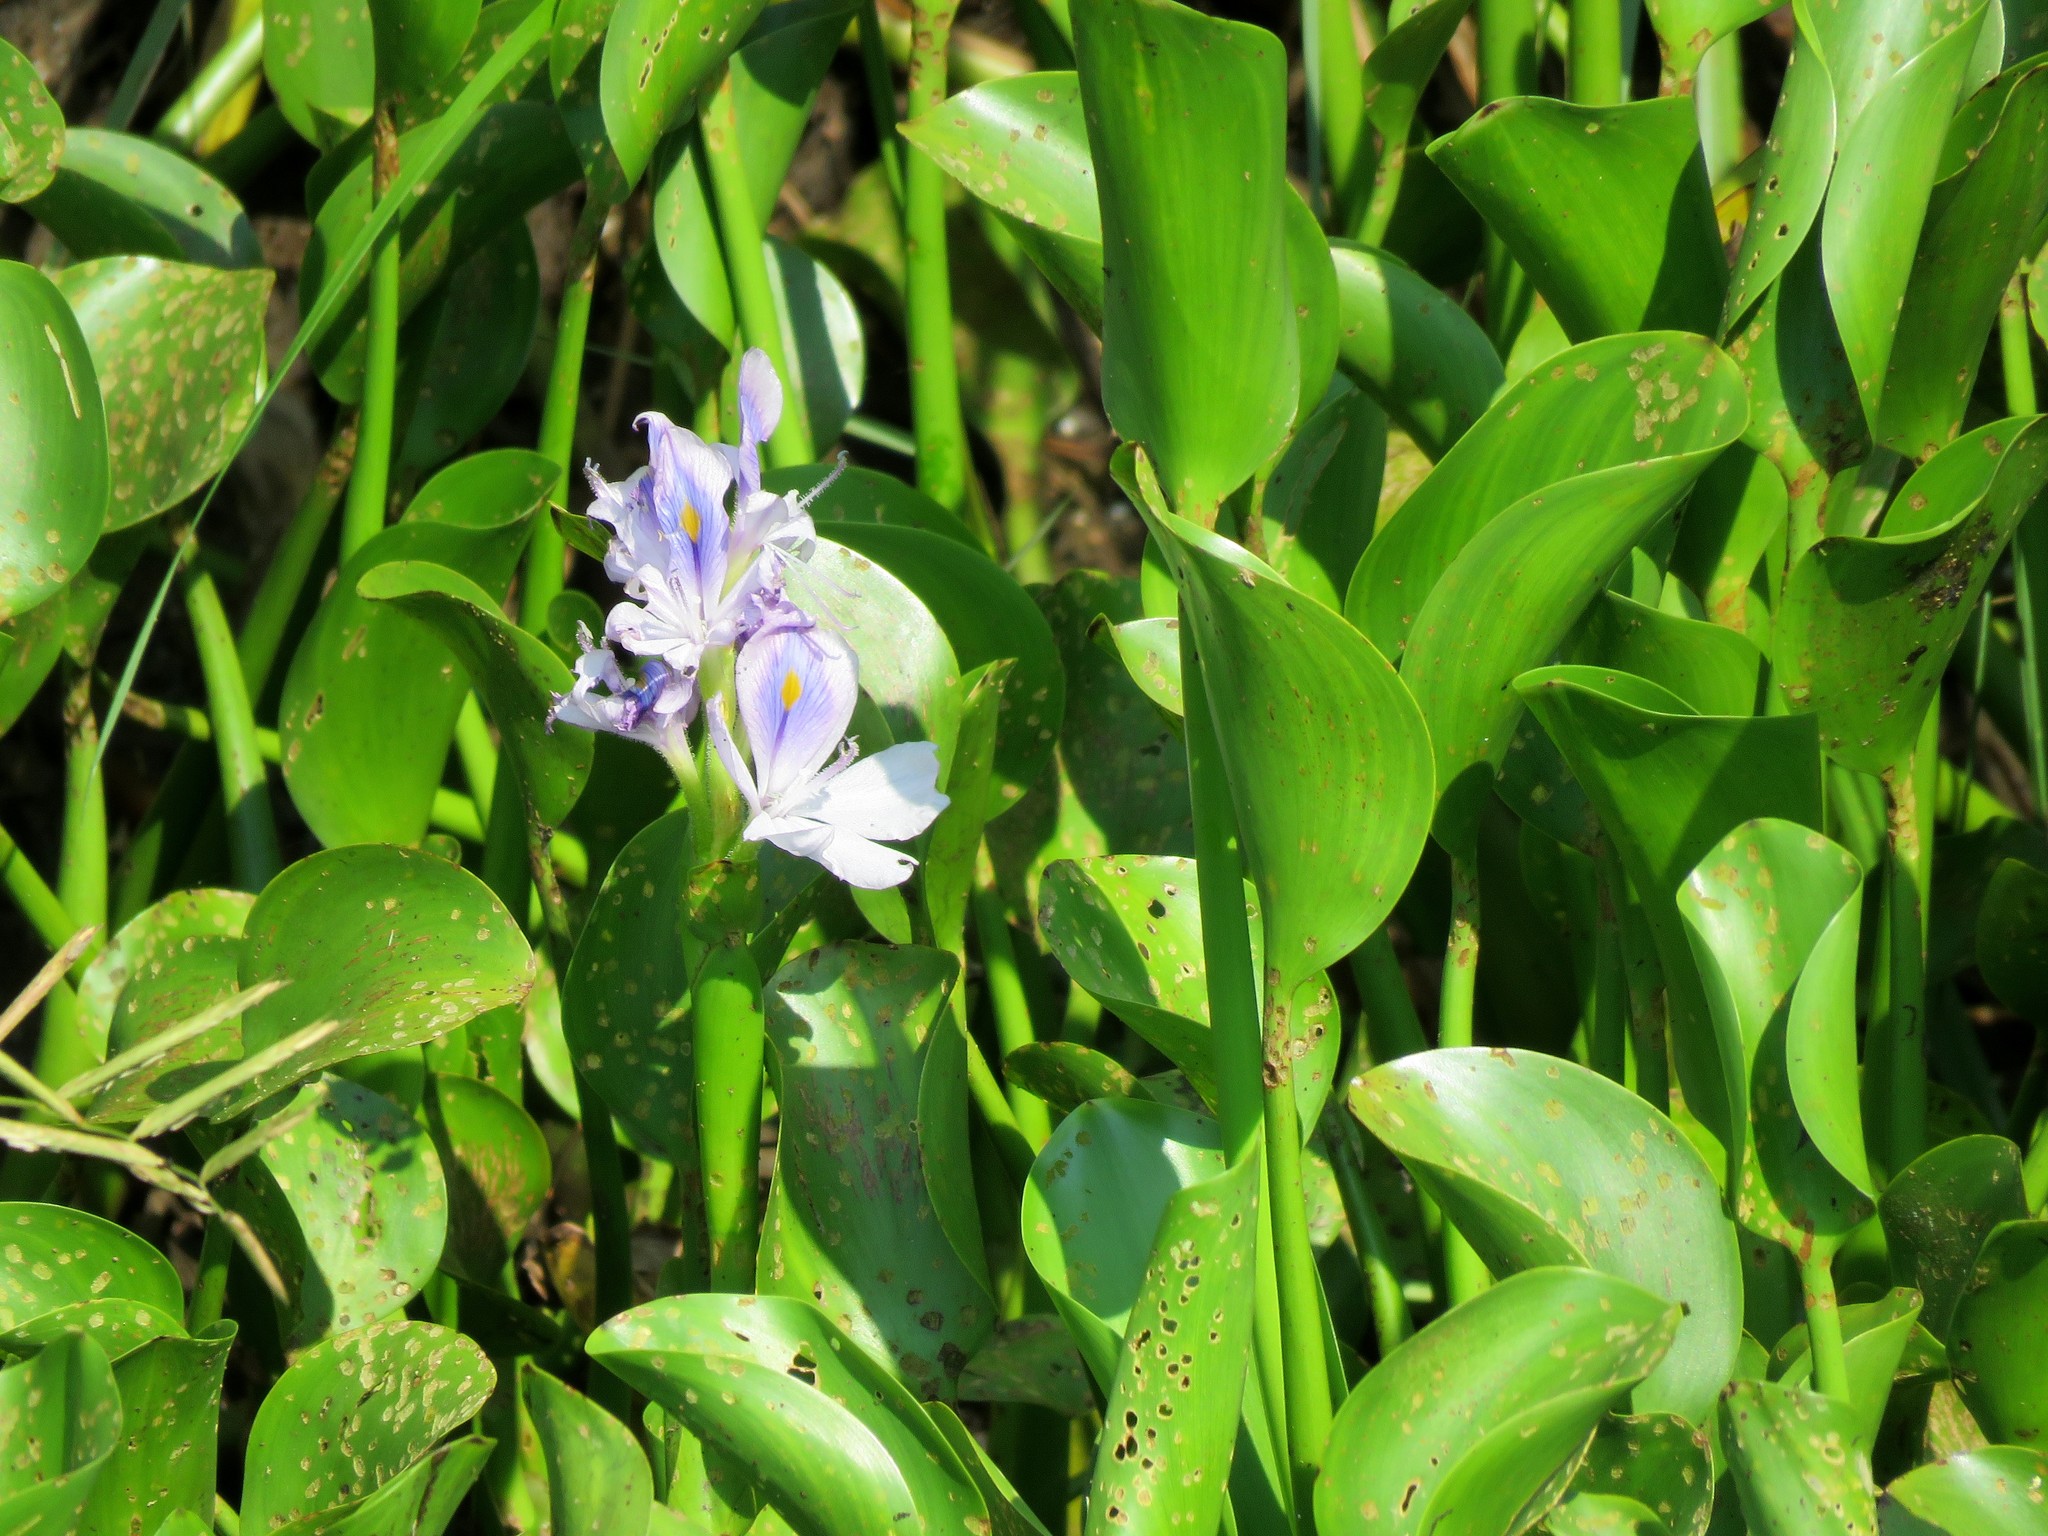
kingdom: Plantae
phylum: Tracheophyta
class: Liliopsida
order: Commelinales
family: Pontederiaceae
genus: Pontederia
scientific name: Pontederia crassipes
